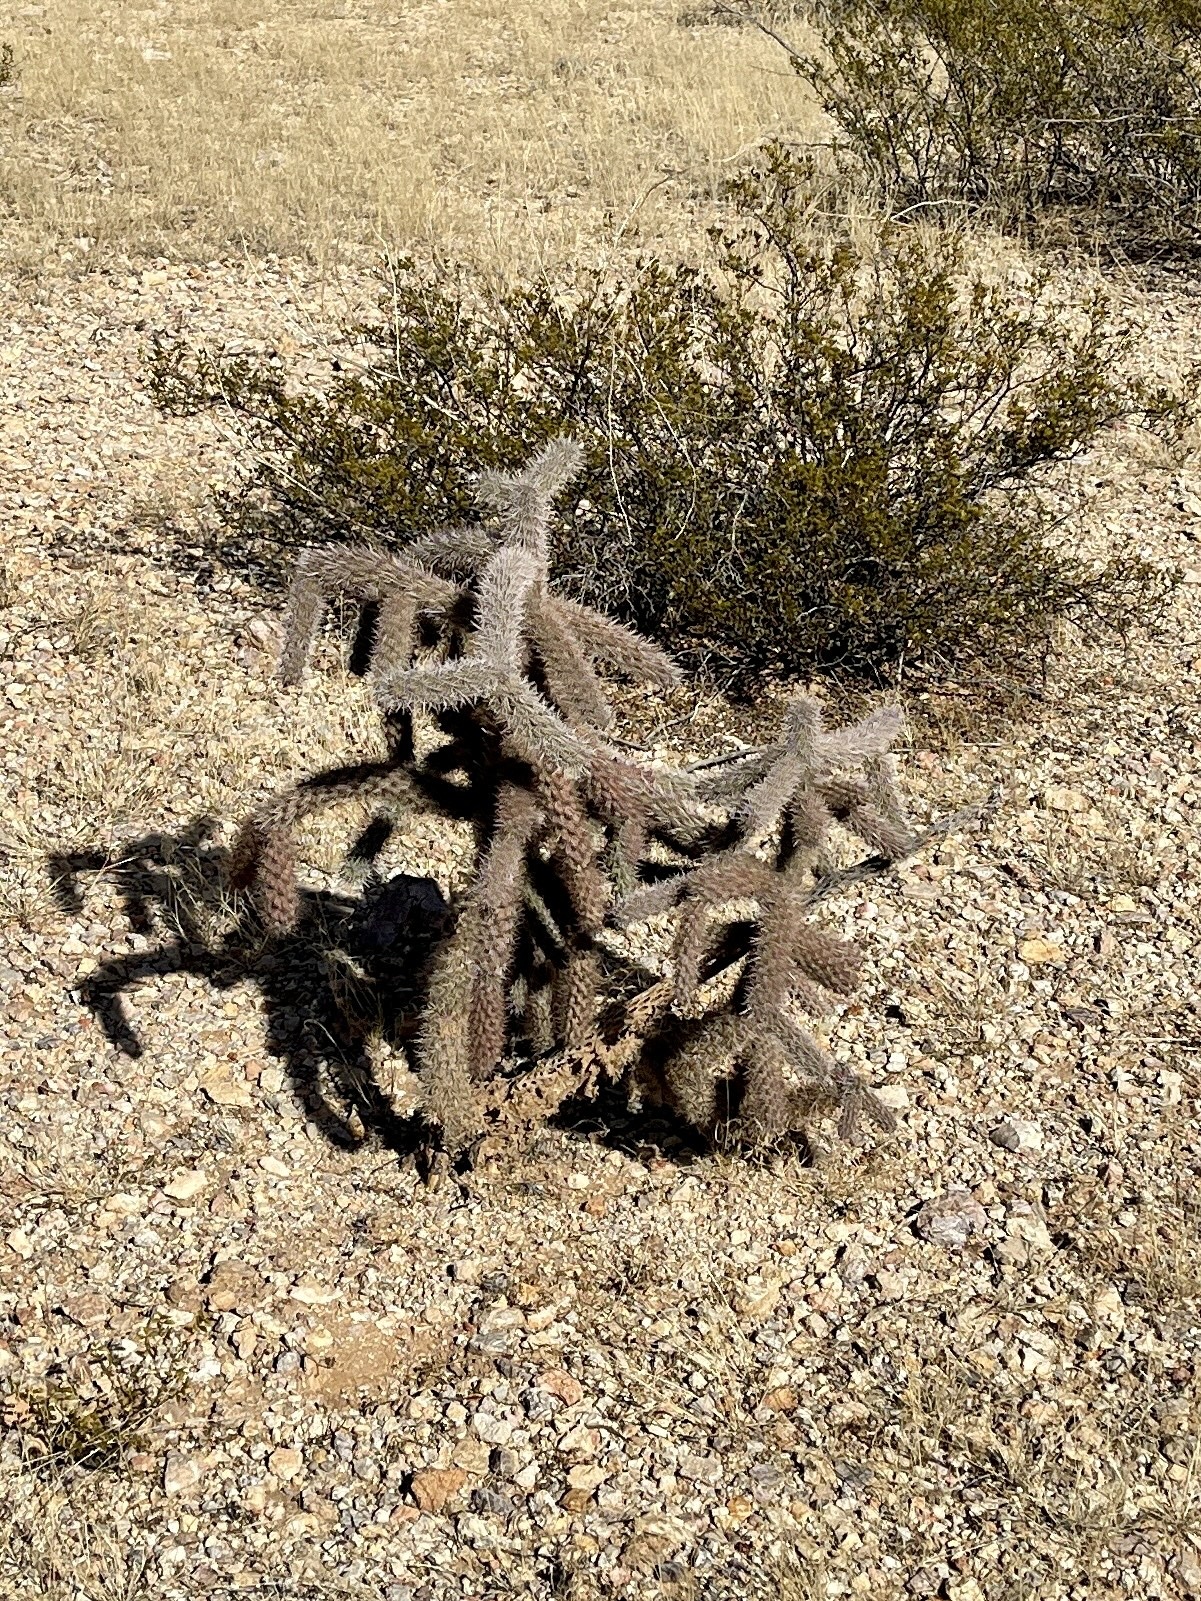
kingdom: Plantae
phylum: Tracheophyta
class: Magnoliopsida
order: Caryophyllales
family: Cactaceae
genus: Cylindropuntia
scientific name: Cylindropuntia imbricata
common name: Candelabrum cactus
